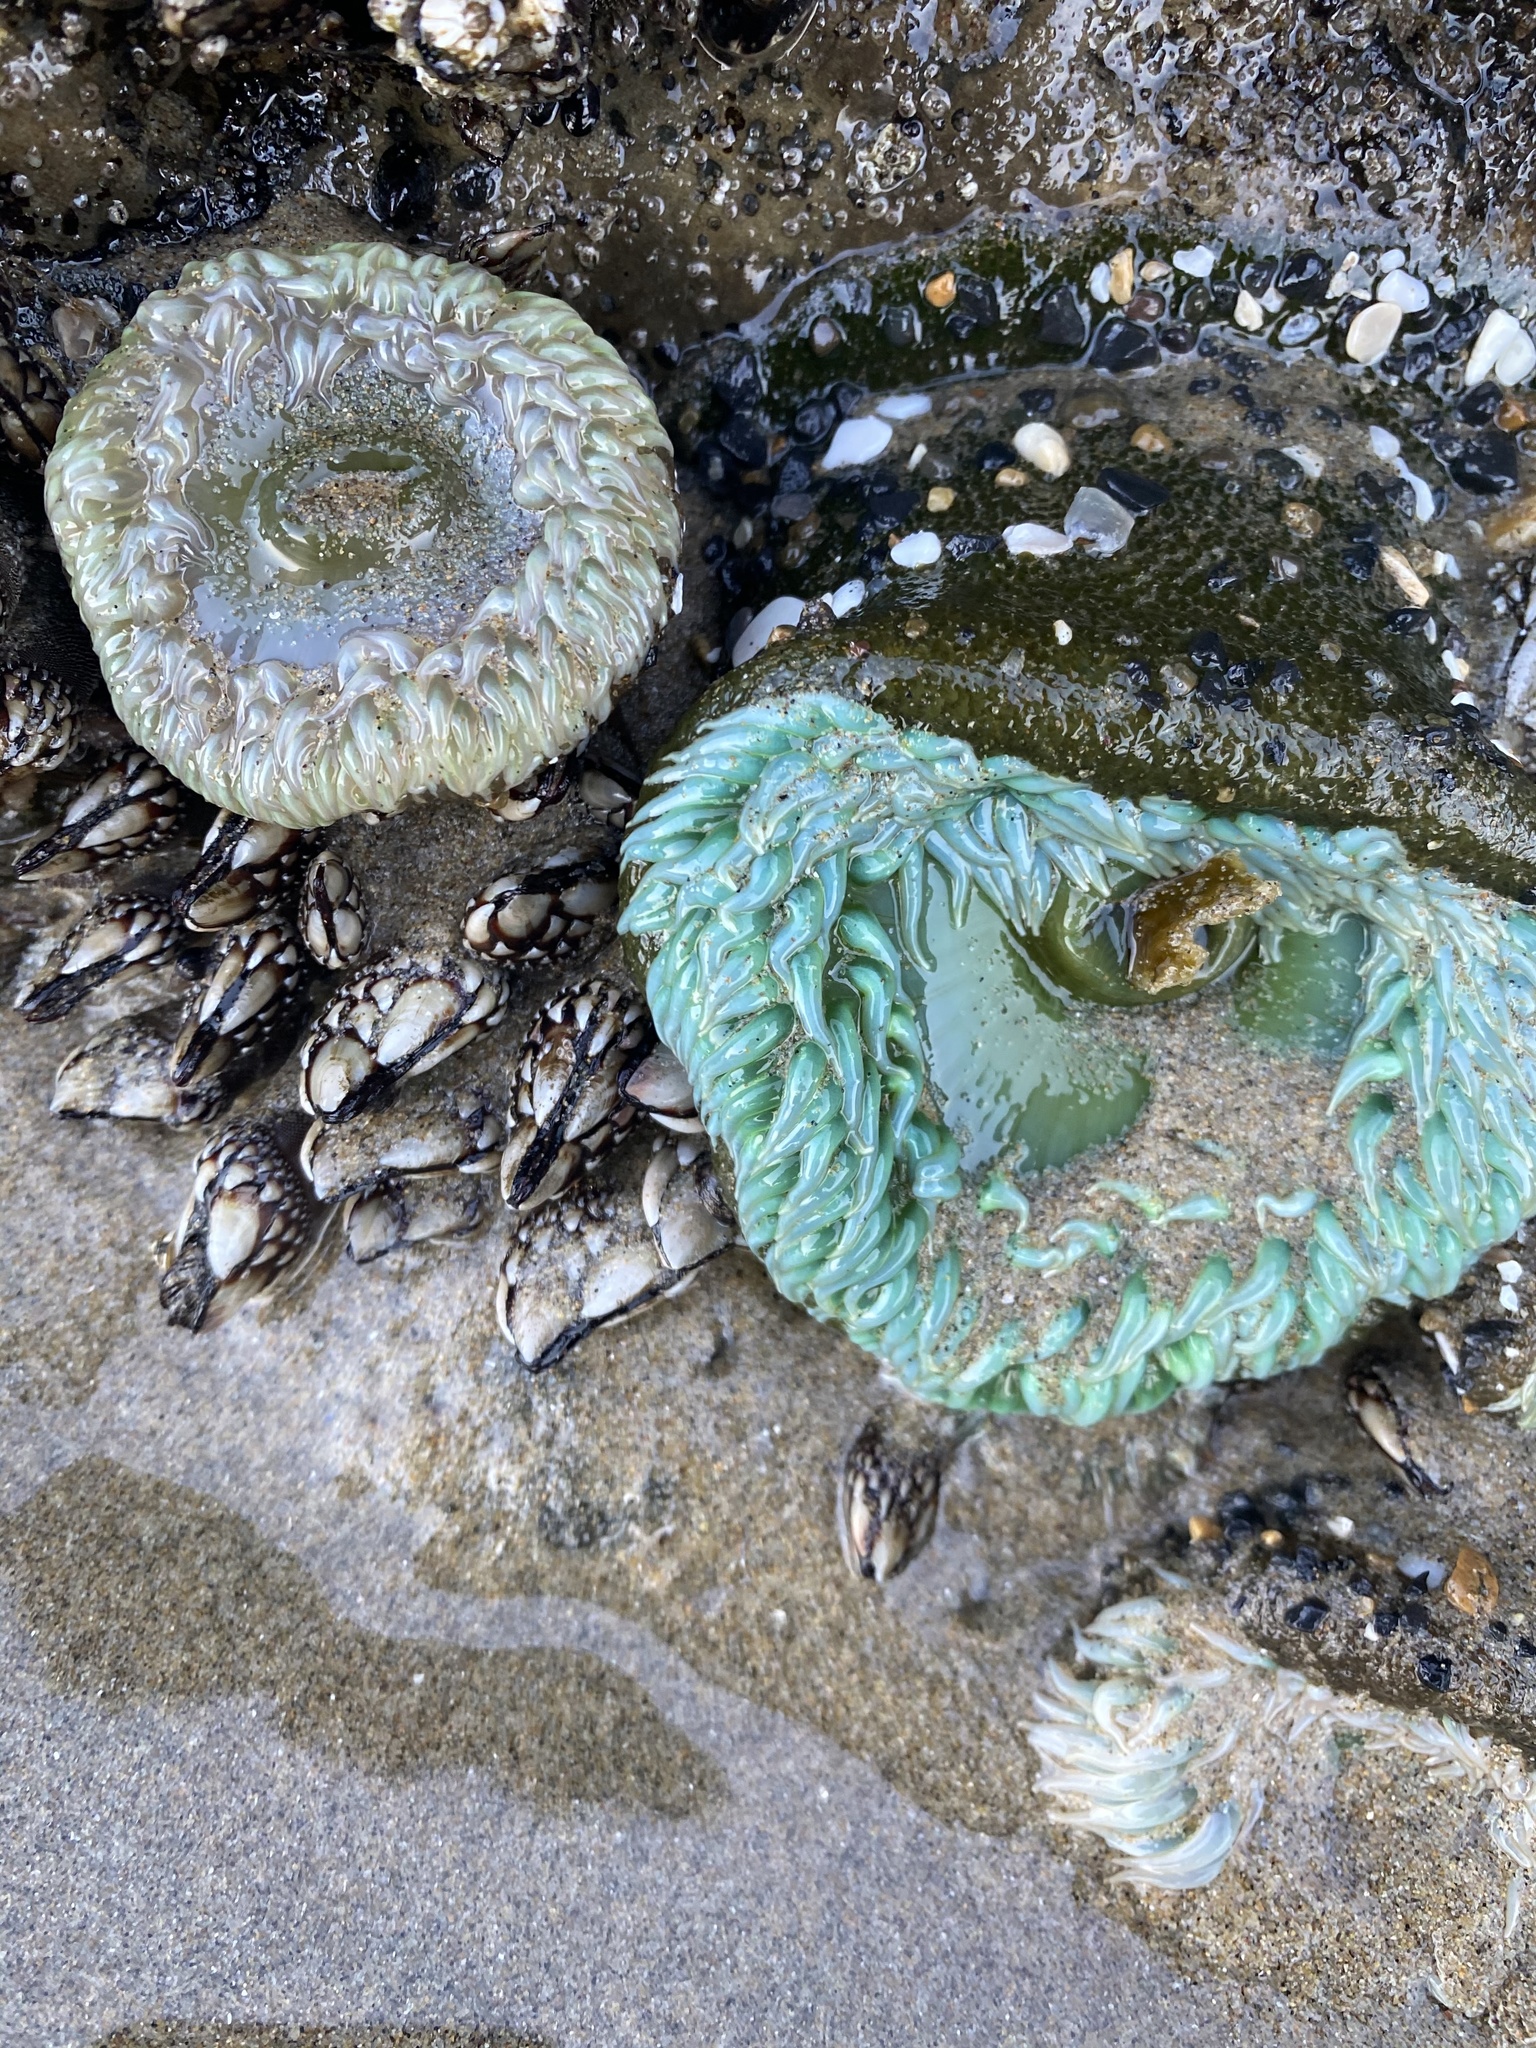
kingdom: Animalia
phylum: Cnidaria
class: Anthozoa
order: Actiniaria
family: Actiniidae
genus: Anthopleura
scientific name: Anthopleura xanthogrammica
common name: Giant green anemone
